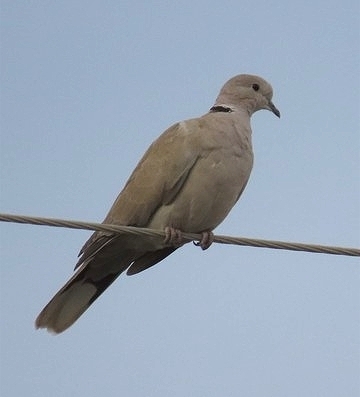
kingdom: Animalia
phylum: Chordata
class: Aves
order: Columbiformes
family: Columbidae
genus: Streptopelia
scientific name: Streptopelia decaocto
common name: Eurasian collared dove
